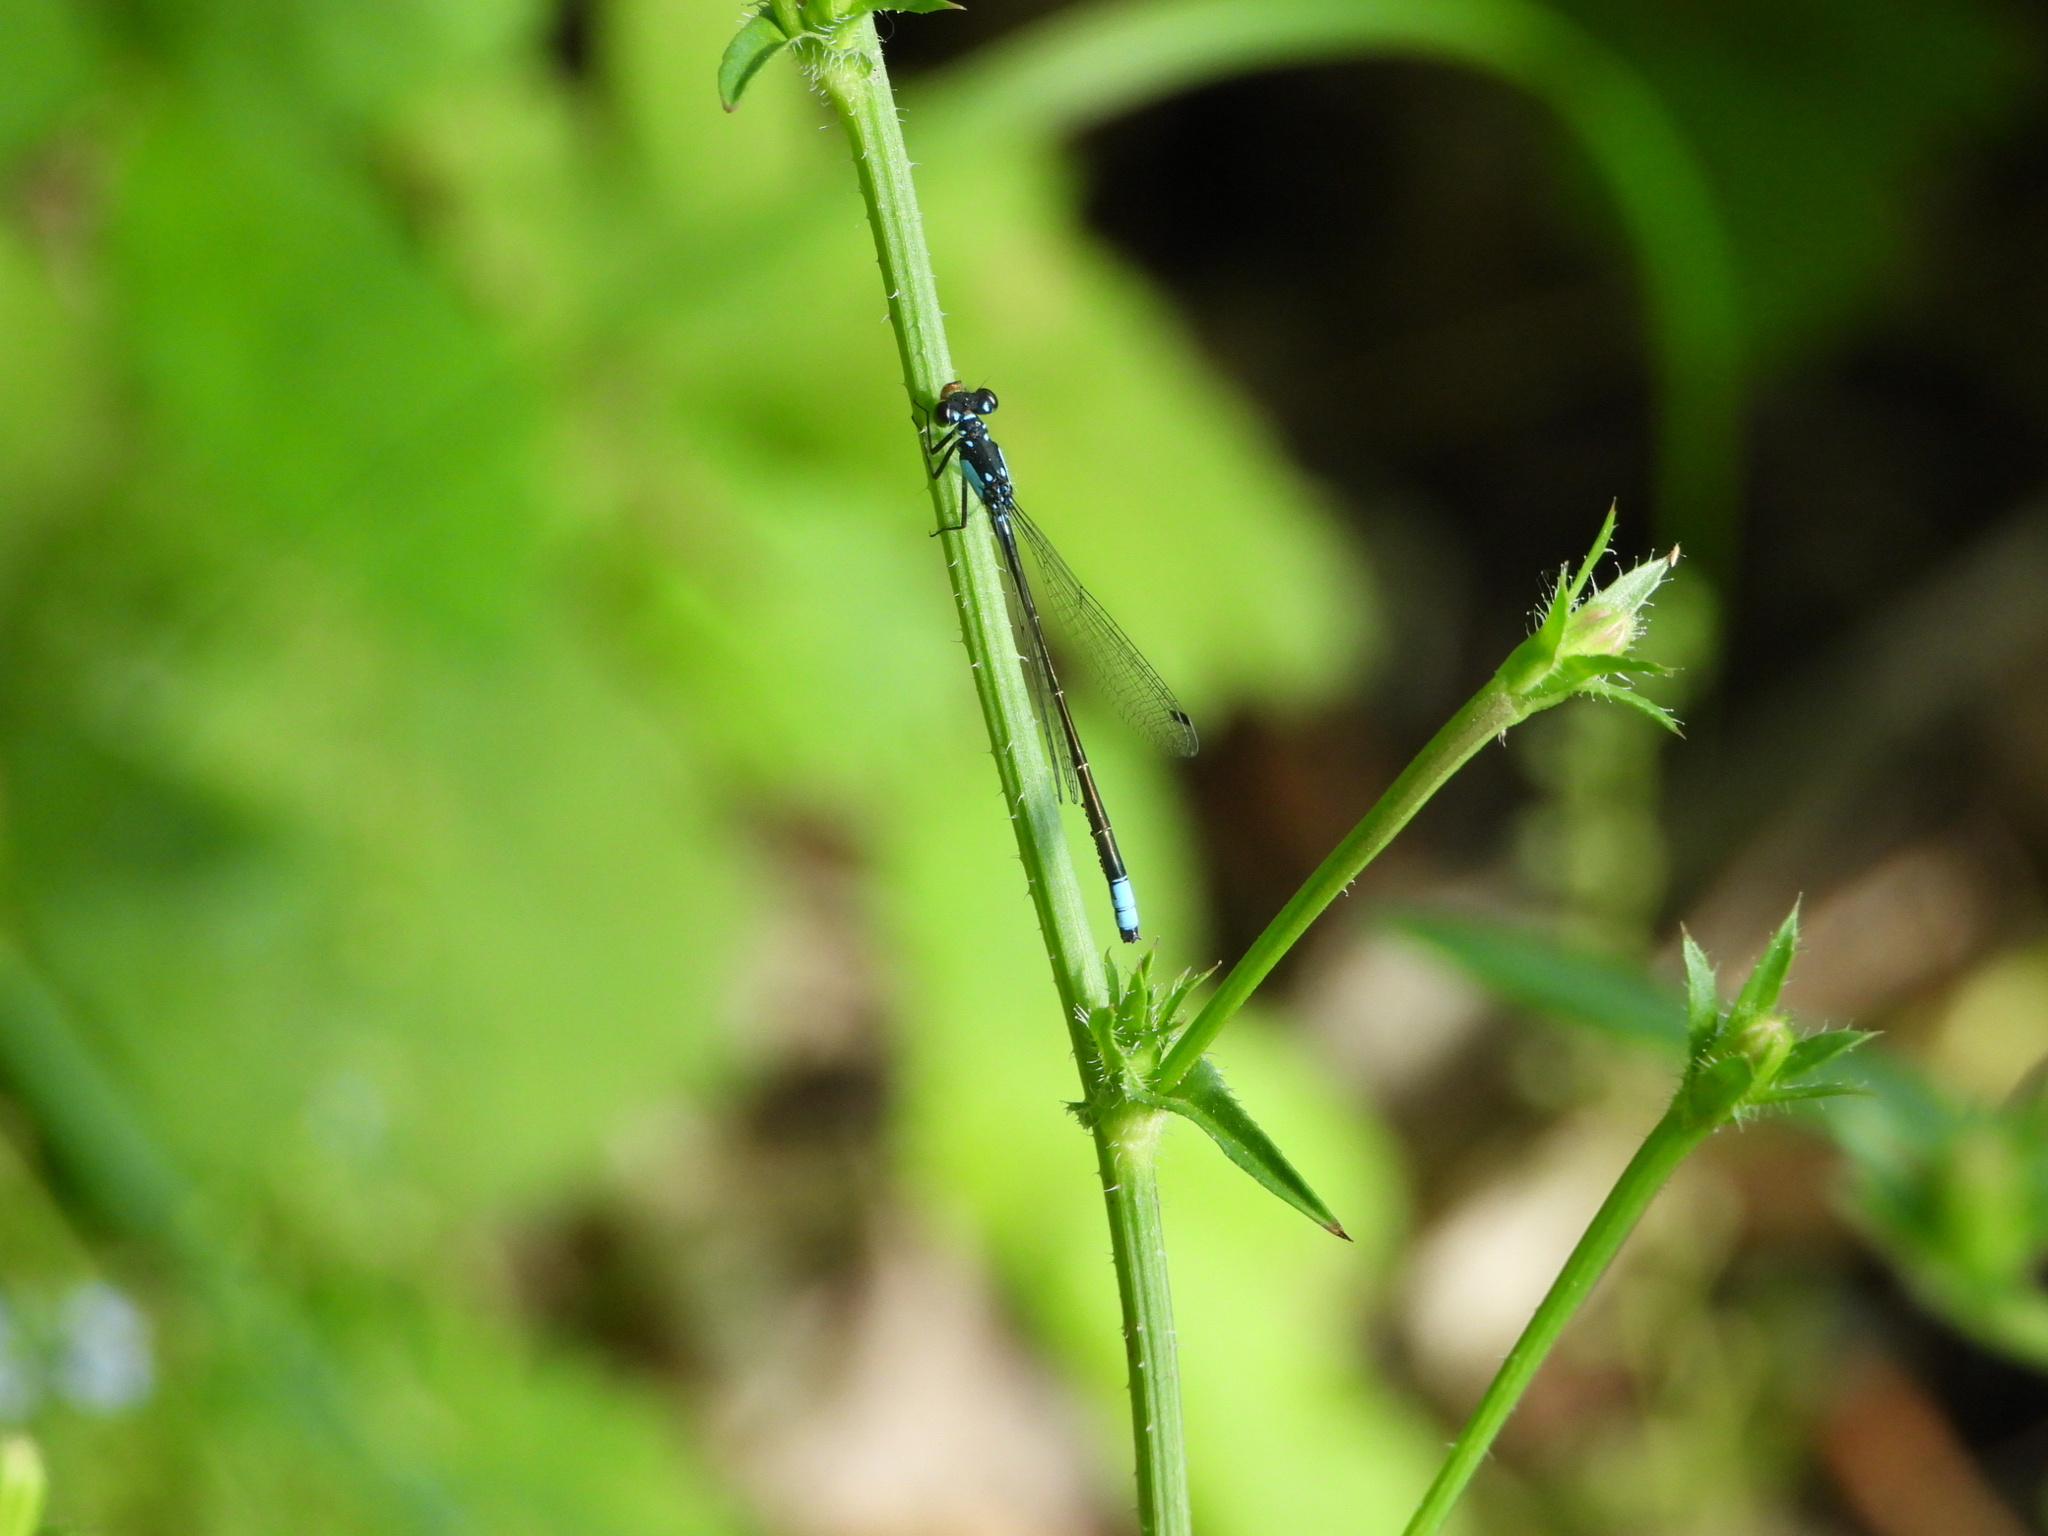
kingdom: Animalia
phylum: Arthropoda
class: Insecta
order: Odonata
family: Coenagrionidae
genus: Ischnura
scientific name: Ischnura cervula
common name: Pacific forktail
